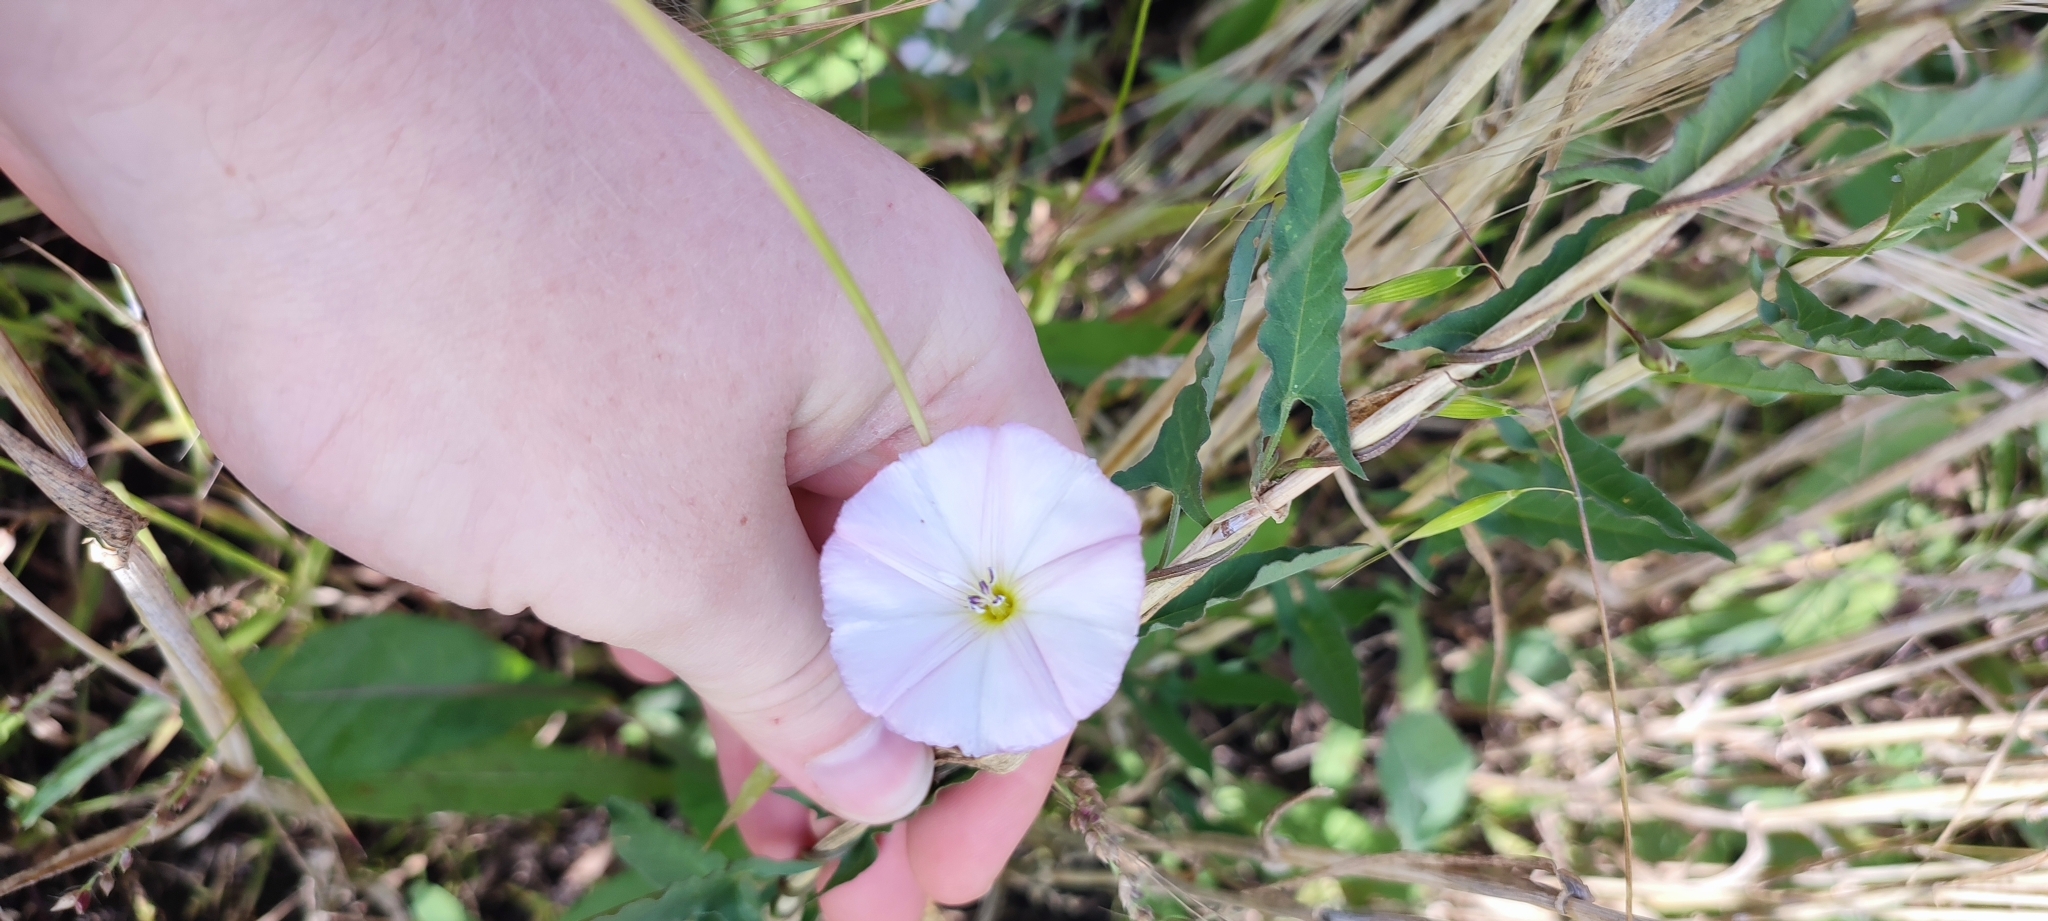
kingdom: Plantae
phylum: Tracheophyta
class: Magnoliopsida
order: Solanales
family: Convolvulaceae
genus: Convolvulus
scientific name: Convolvulus arvensis
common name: Field bindweed
